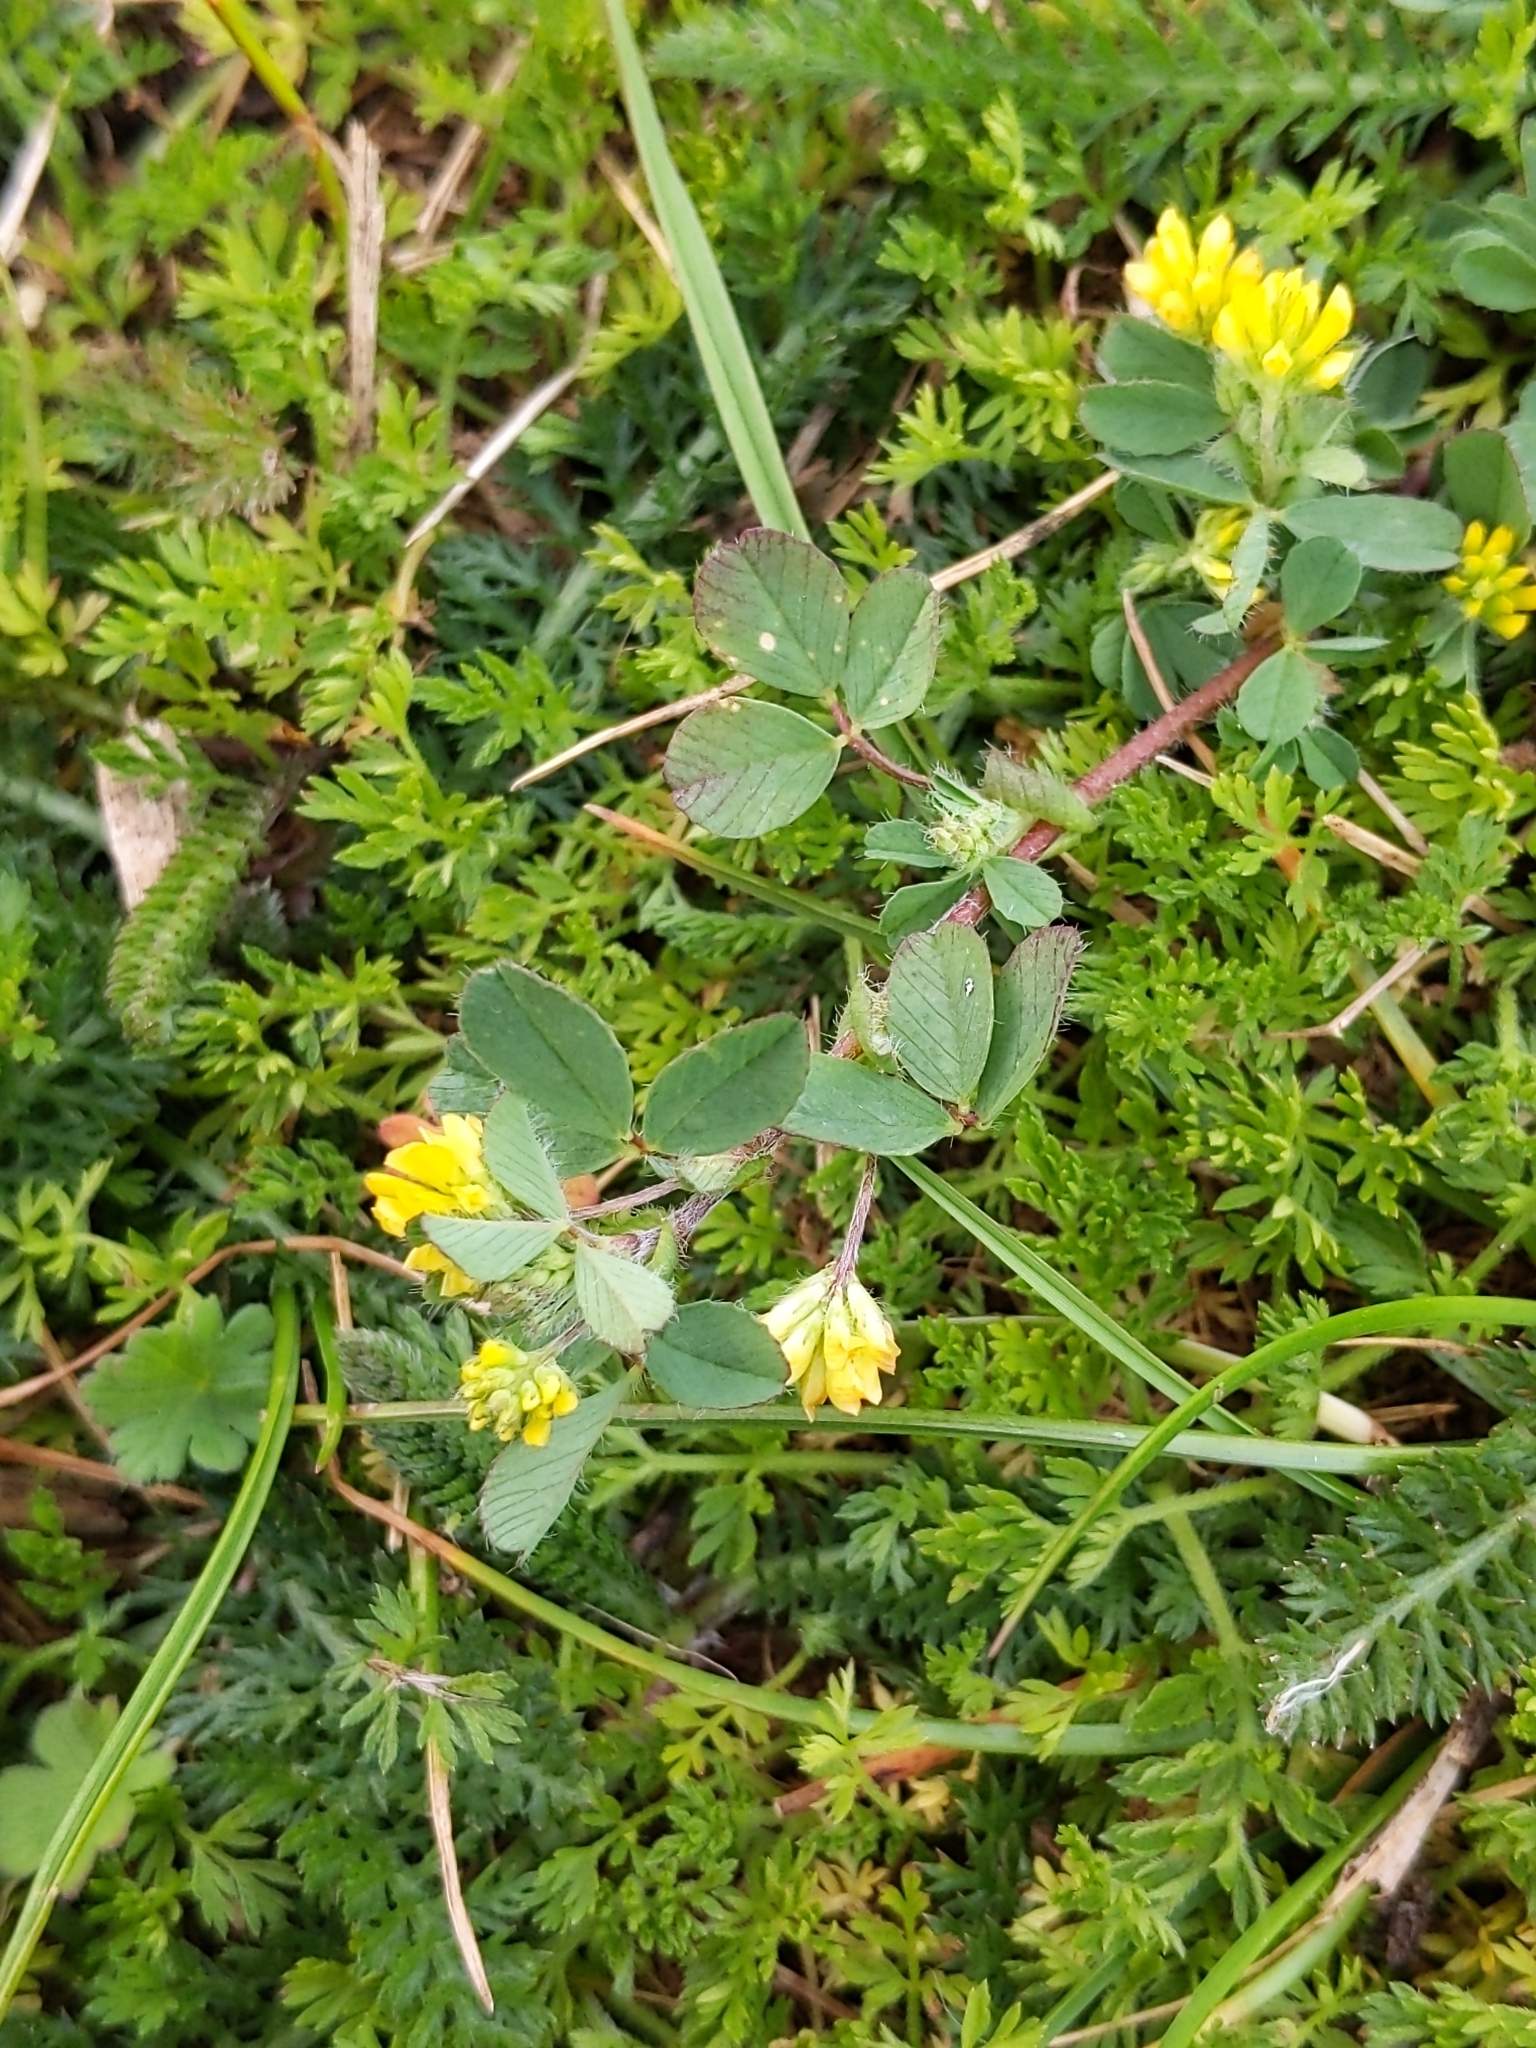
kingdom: Plantae
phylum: Tracheophyta
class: Magnoliopsida
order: Fabales
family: Fabaceae
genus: Trifolium
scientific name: Trifolium dubium
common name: Suckling clover
